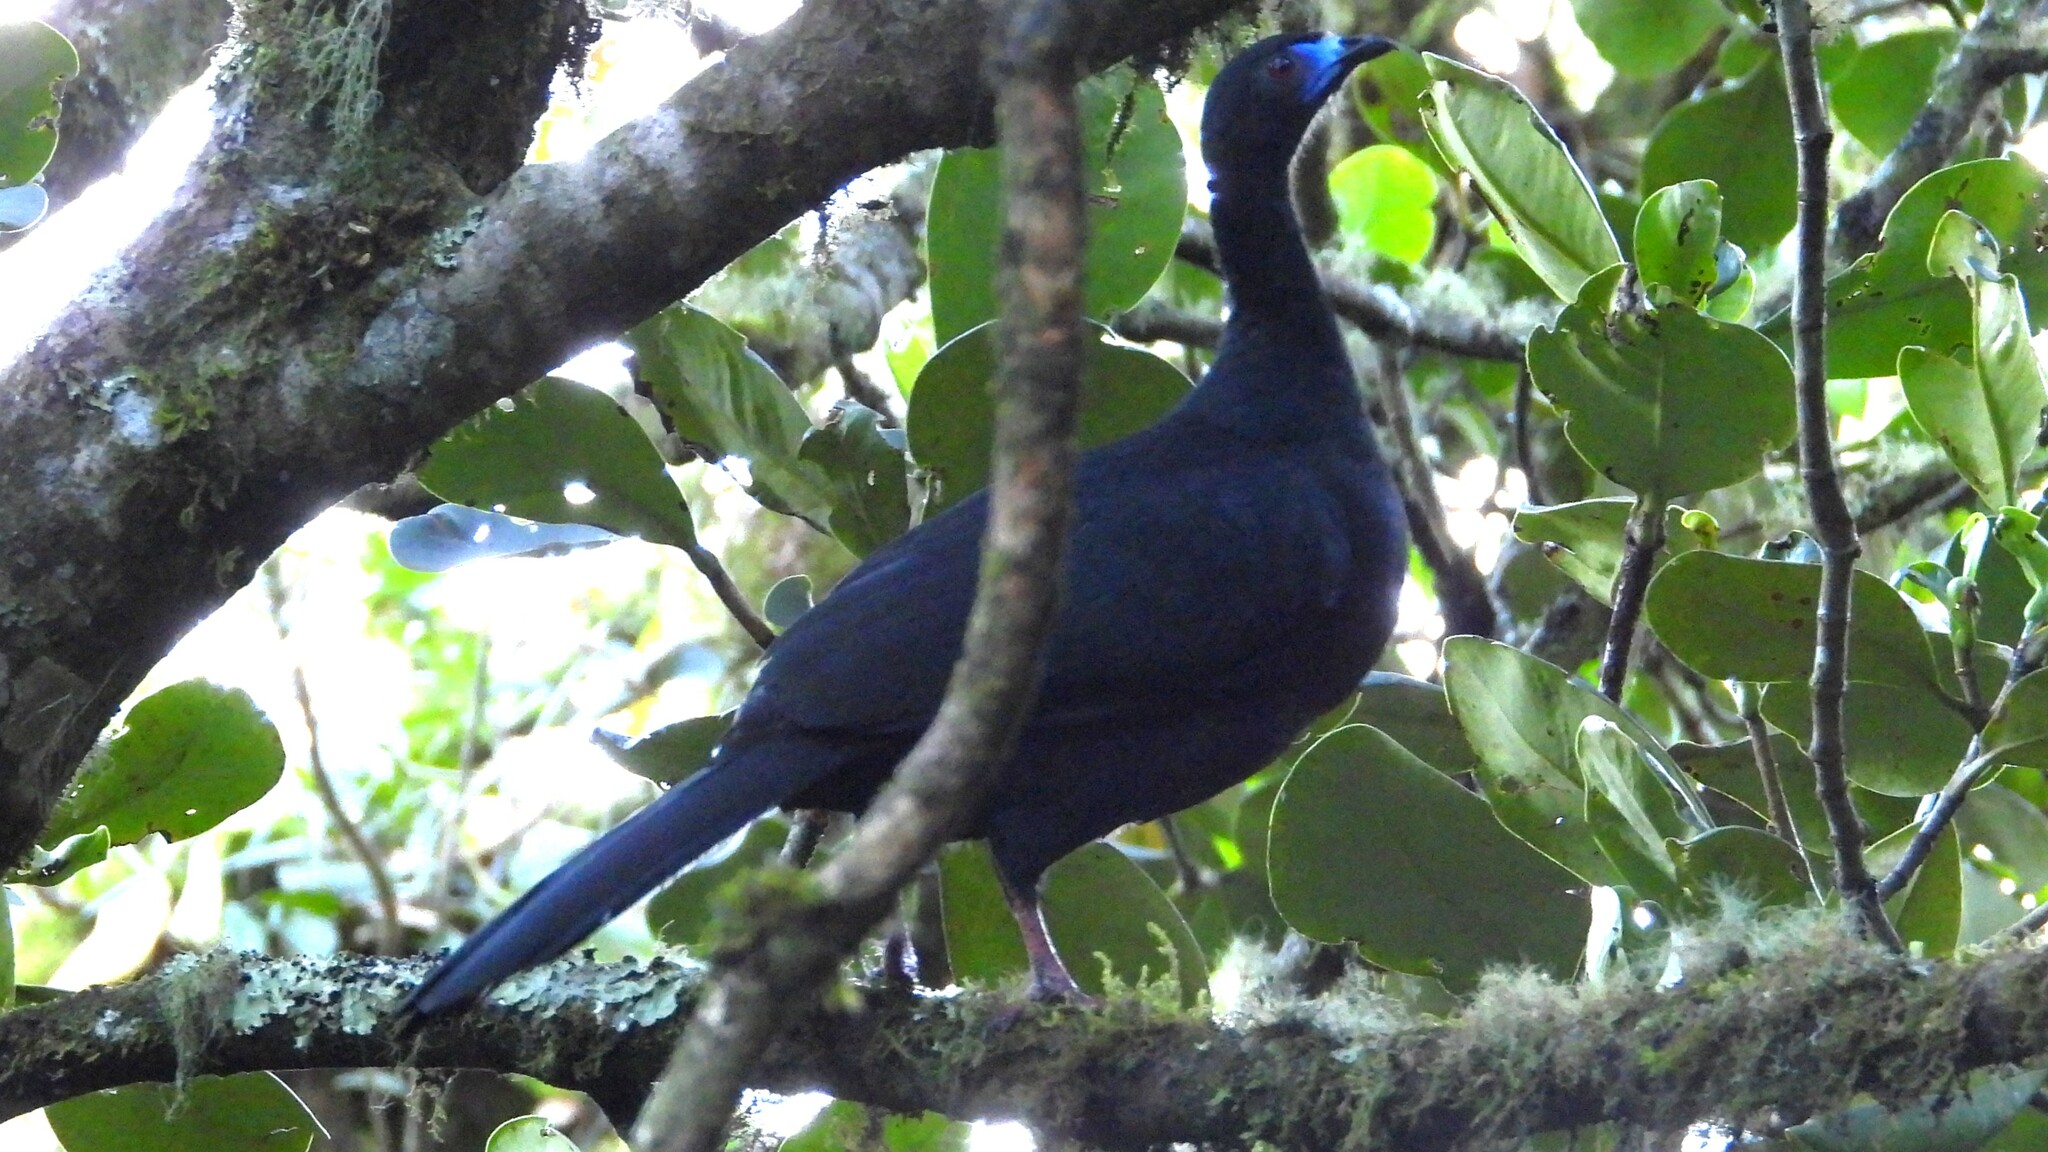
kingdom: Animalia
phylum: Chordata
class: Aves
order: Galliformes
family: Cracidae
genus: Chamaepetes
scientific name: Chamaepetes unicolor
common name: Black guan
